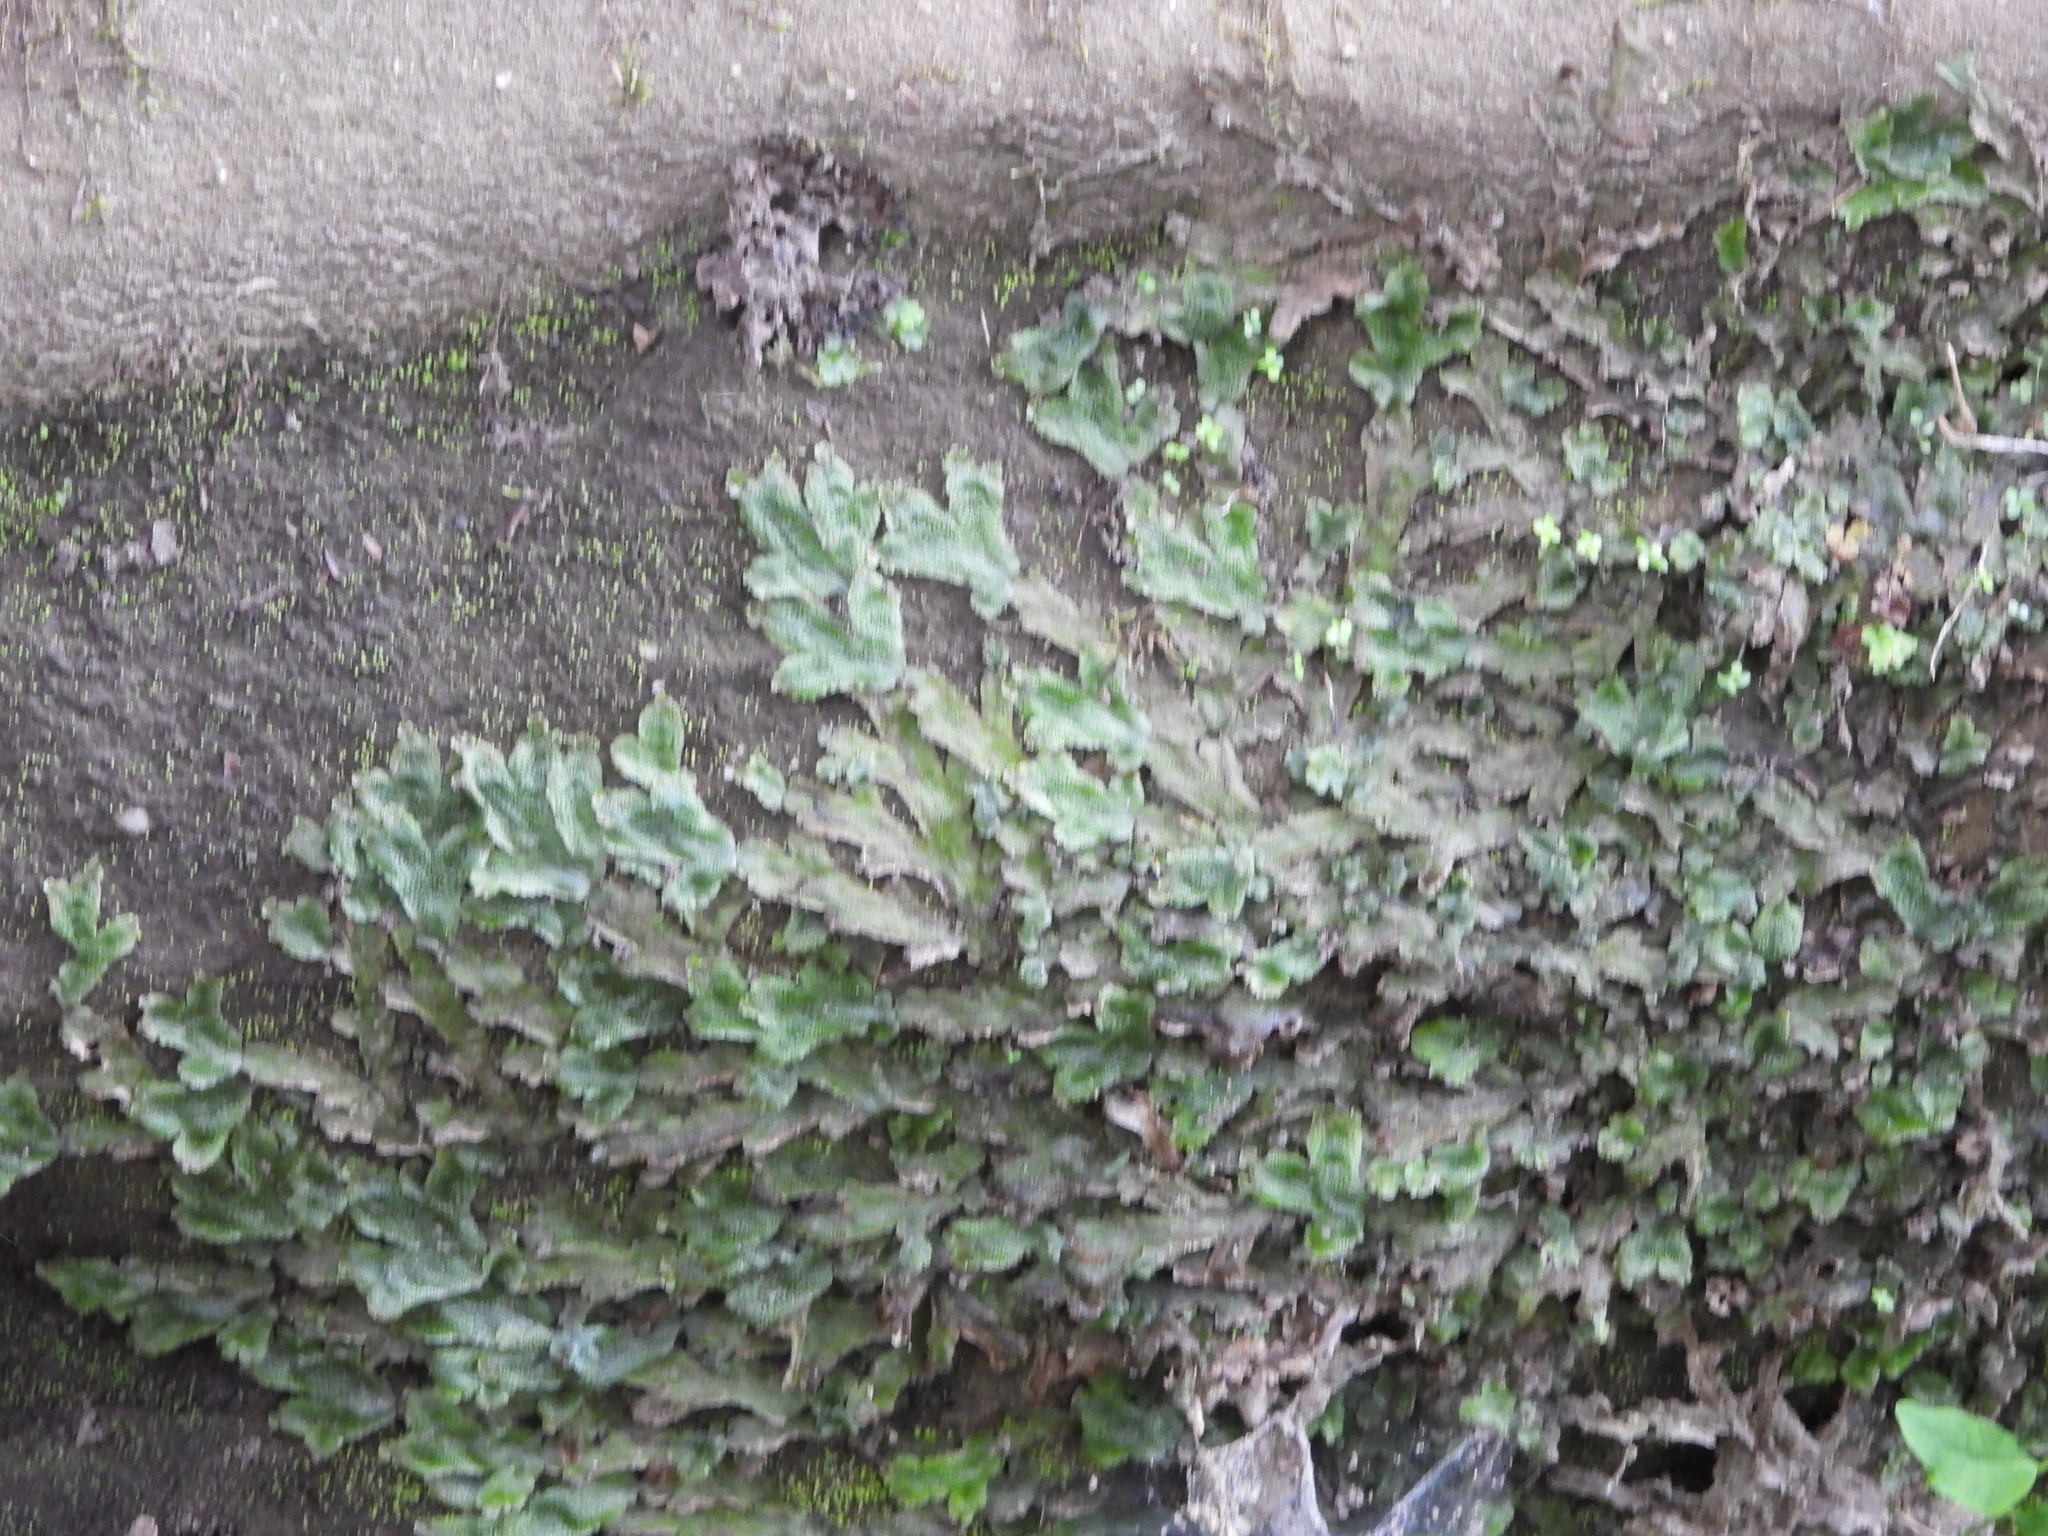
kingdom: Plantae
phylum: Marchantiophyta
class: Marchantiopsida
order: Marchantiales
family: Conocephalaceae
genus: Conocephalum
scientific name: Conocephalum salebrosum
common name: Cat-tongue liverwort
